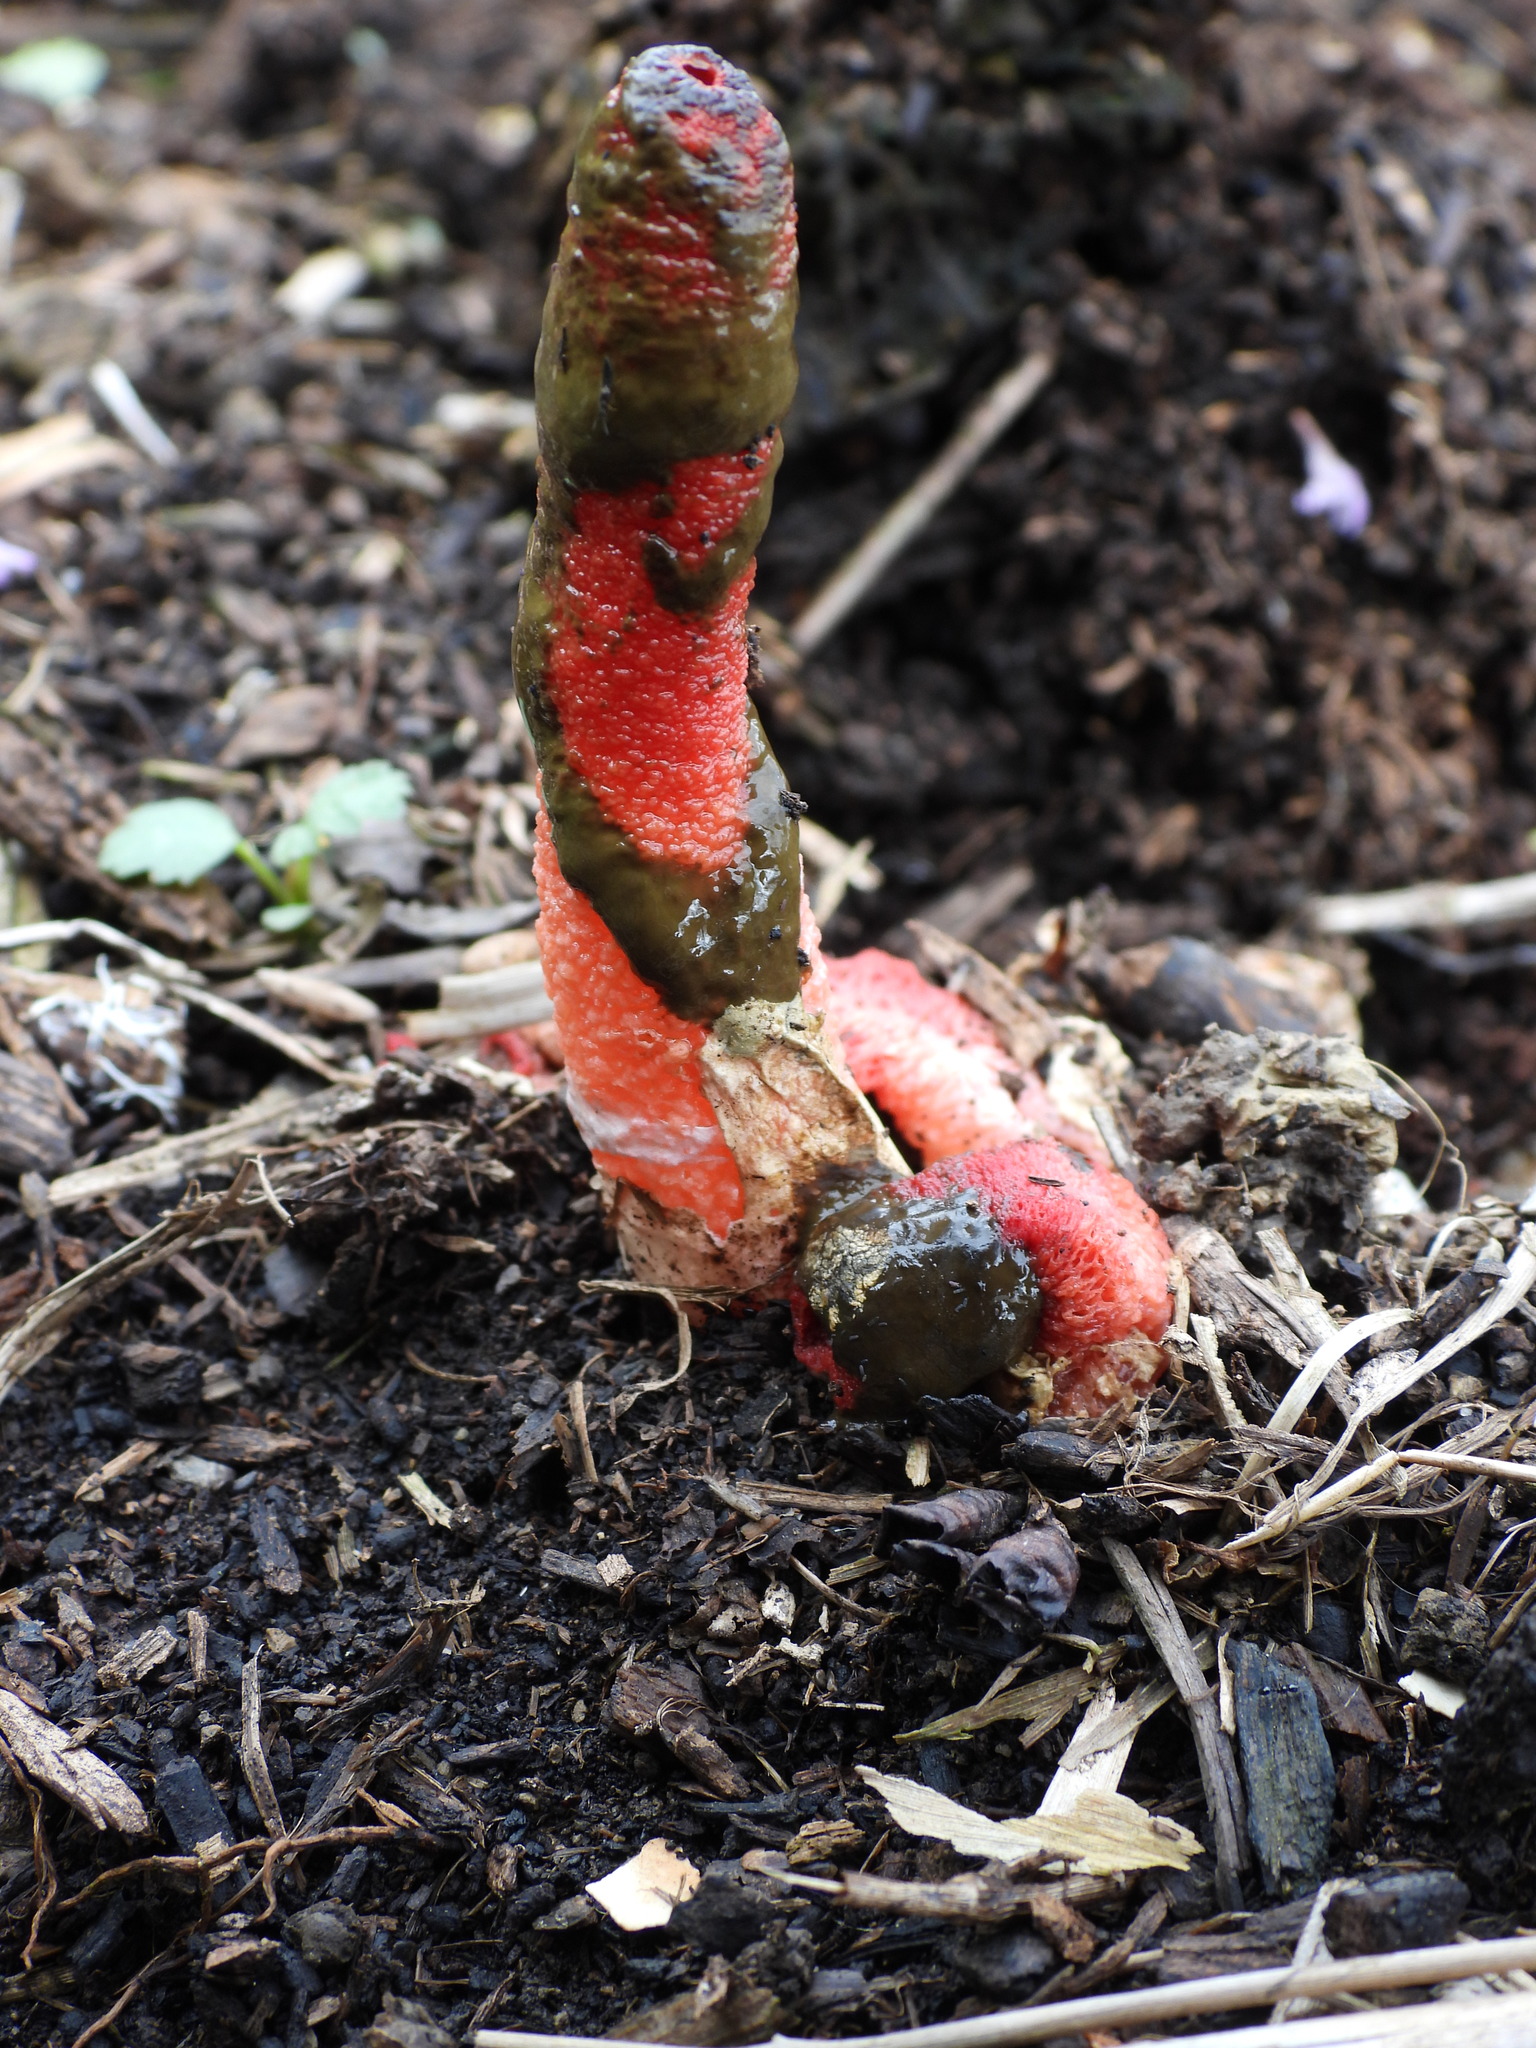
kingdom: Fungi
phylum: Basidiomycota
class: Agaricomycetes
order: Phallales
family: Phallaceae
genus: Mutinus
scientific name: Mutinus elegans
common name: Devil's dipstick
